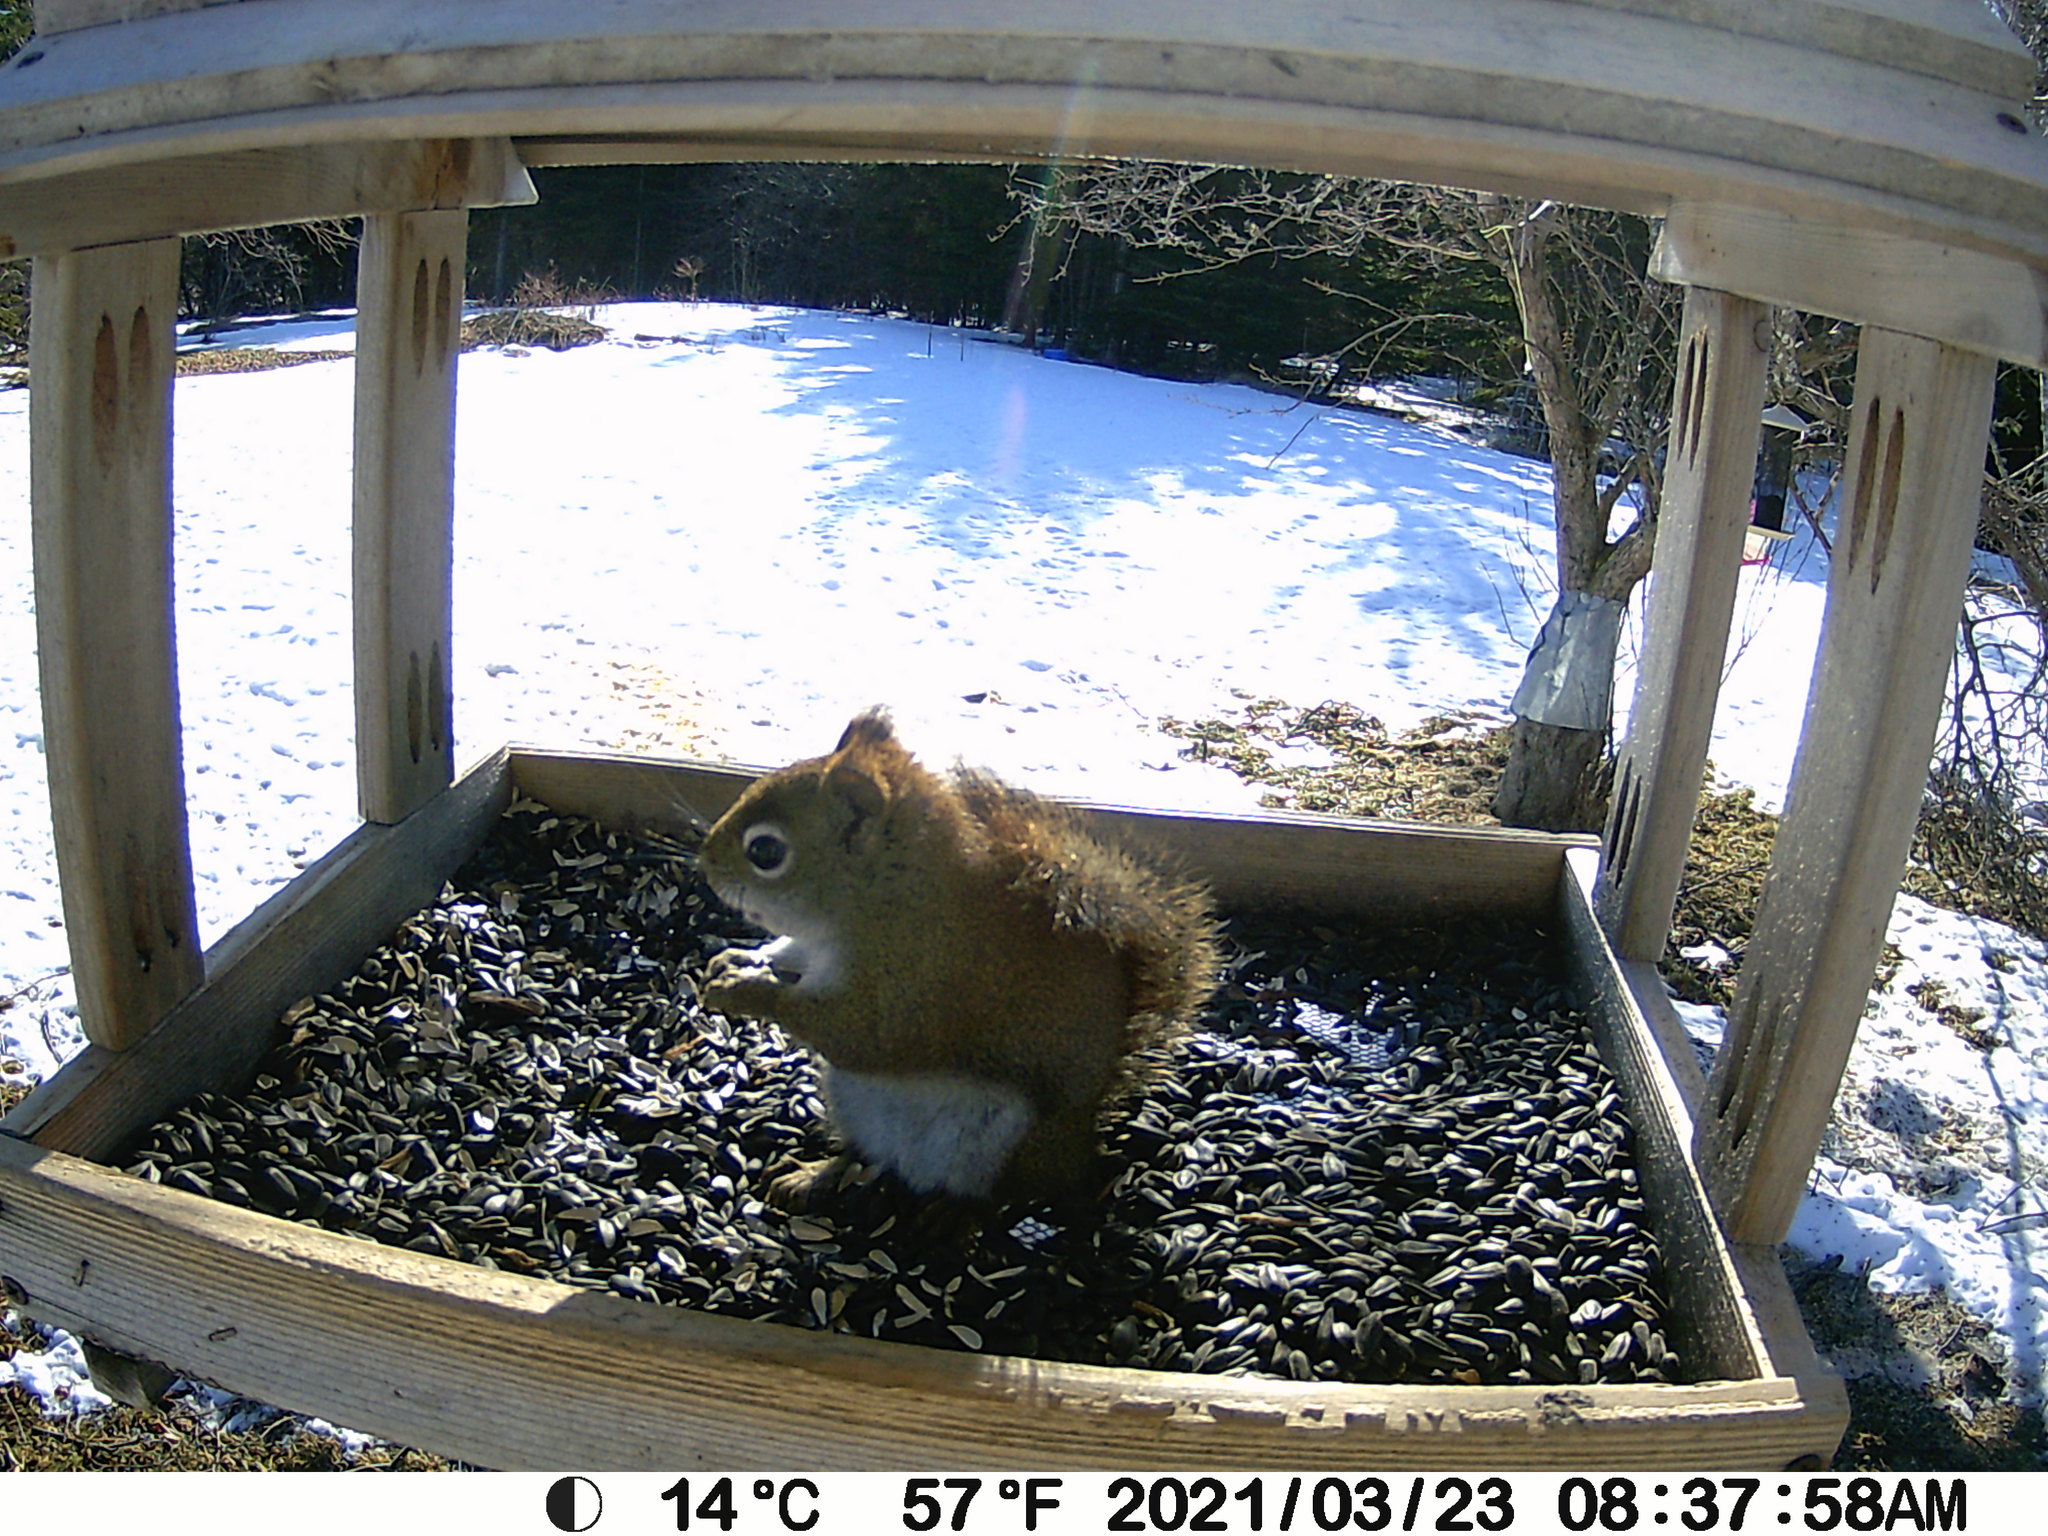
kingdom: Animalia
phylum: Chordata
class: Mammalia
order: Rodentia
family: Sciuridae
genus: Tamiasciurus
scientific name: Tamiasciurus hudsonicus
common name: Red squirrel
